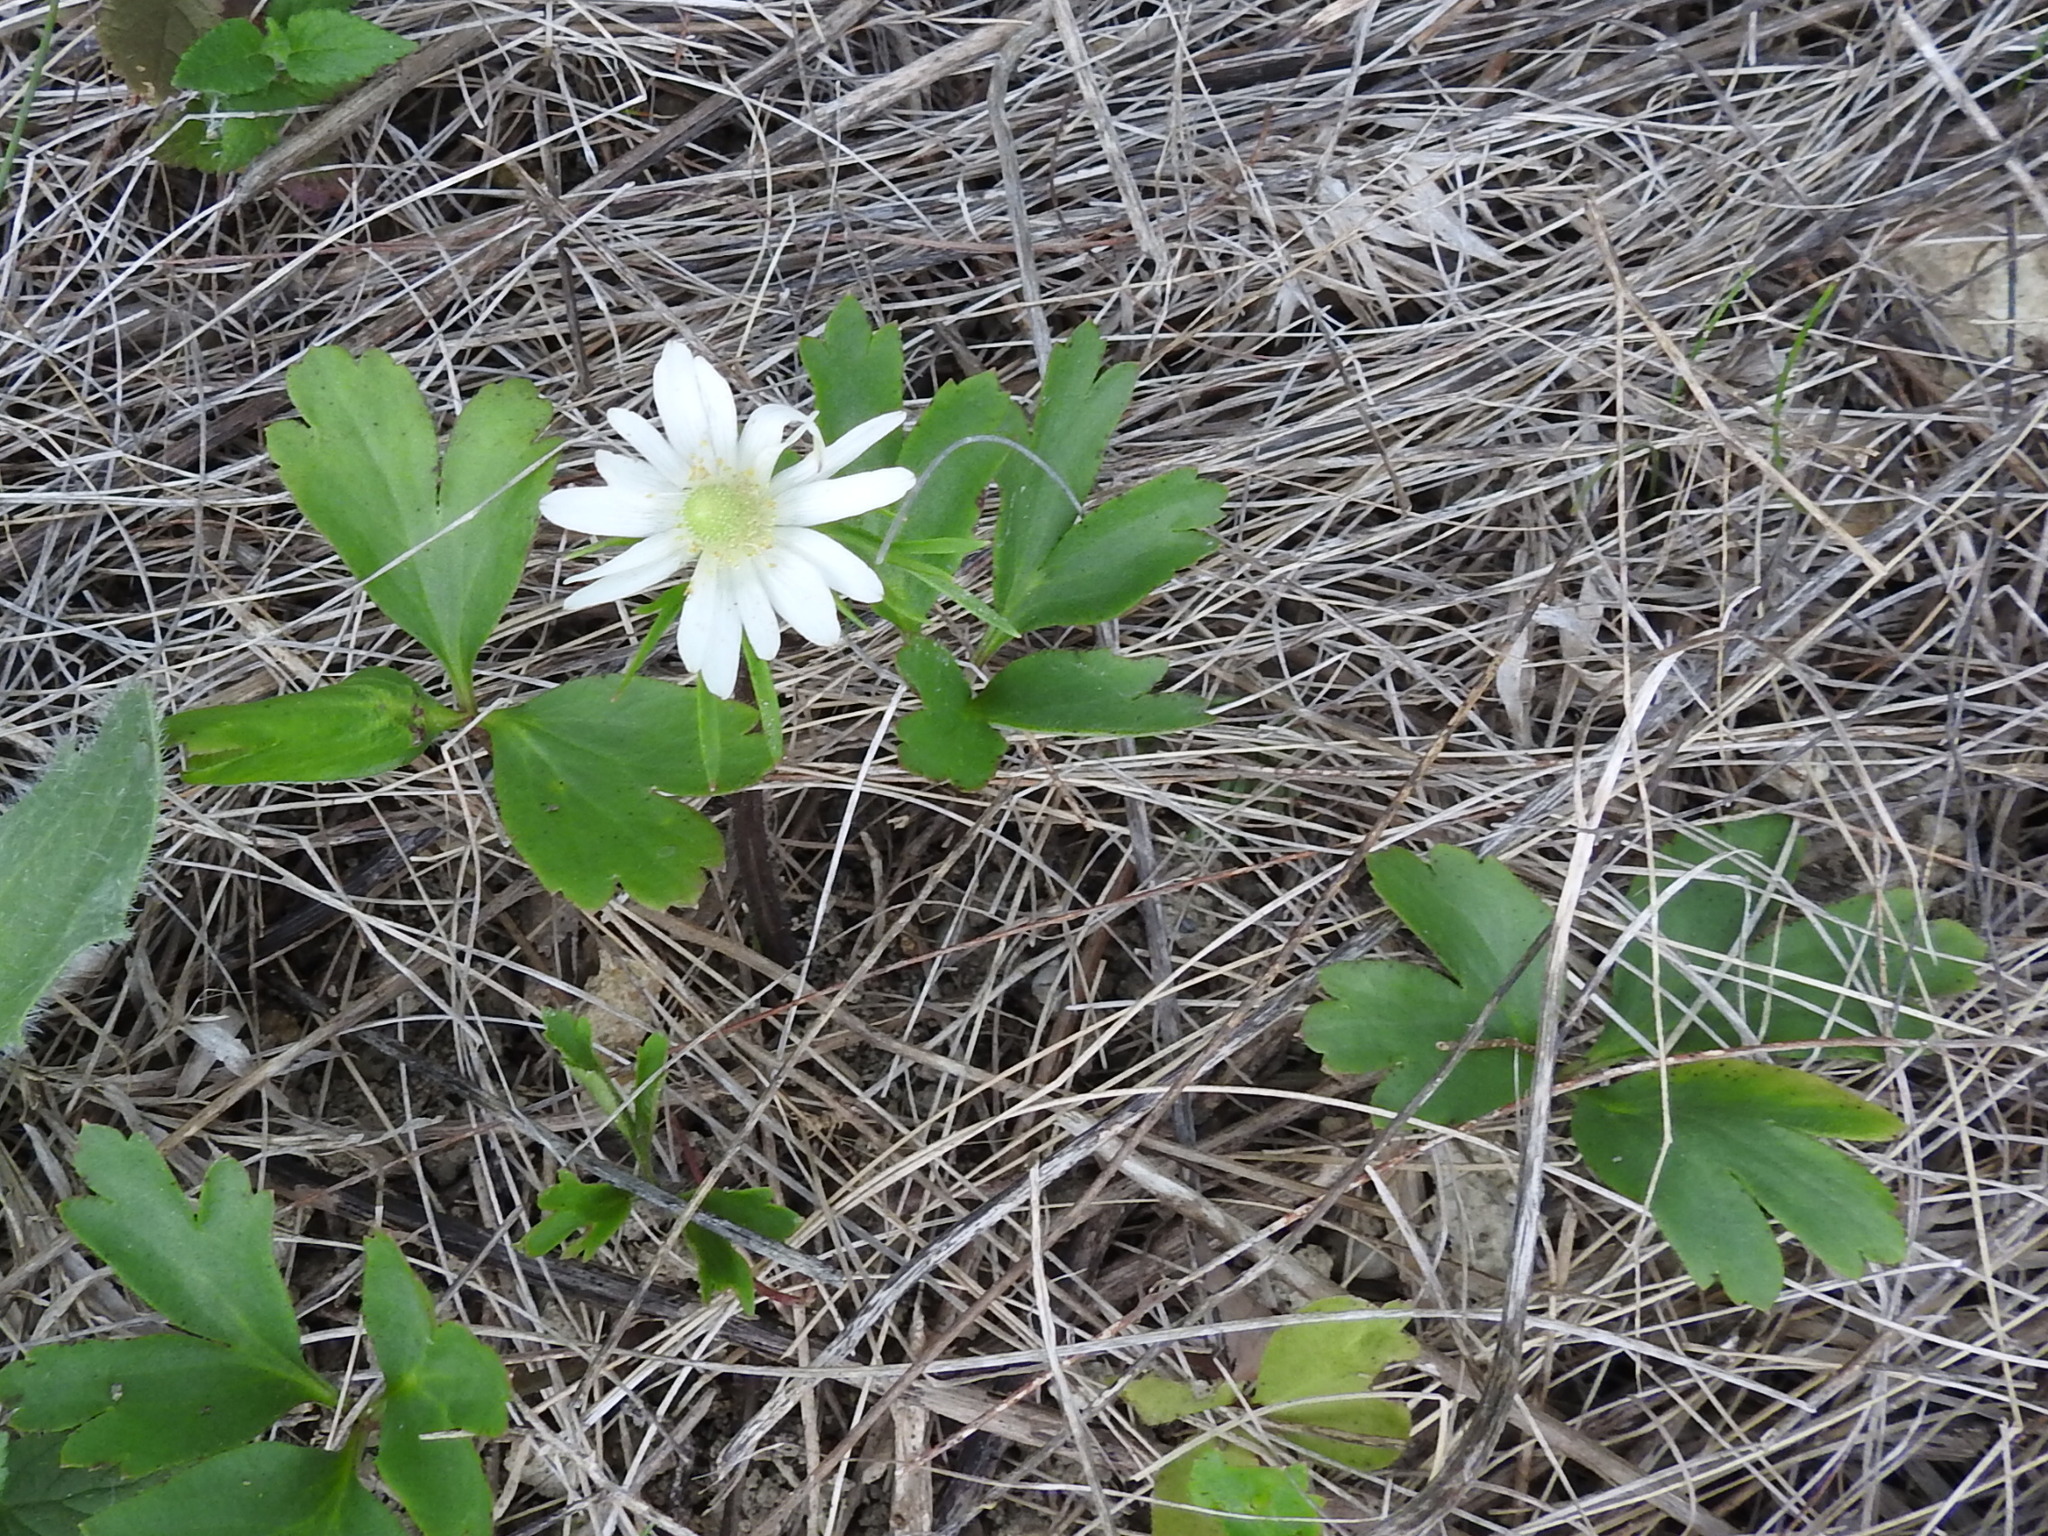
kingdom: Plantae
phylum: Tracheophyta
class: Magnoliopsida
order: Ranunculales
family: Ranunculaceae
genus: Anemone
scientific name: Anemone berlandieri
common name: Ten-petal anemone
